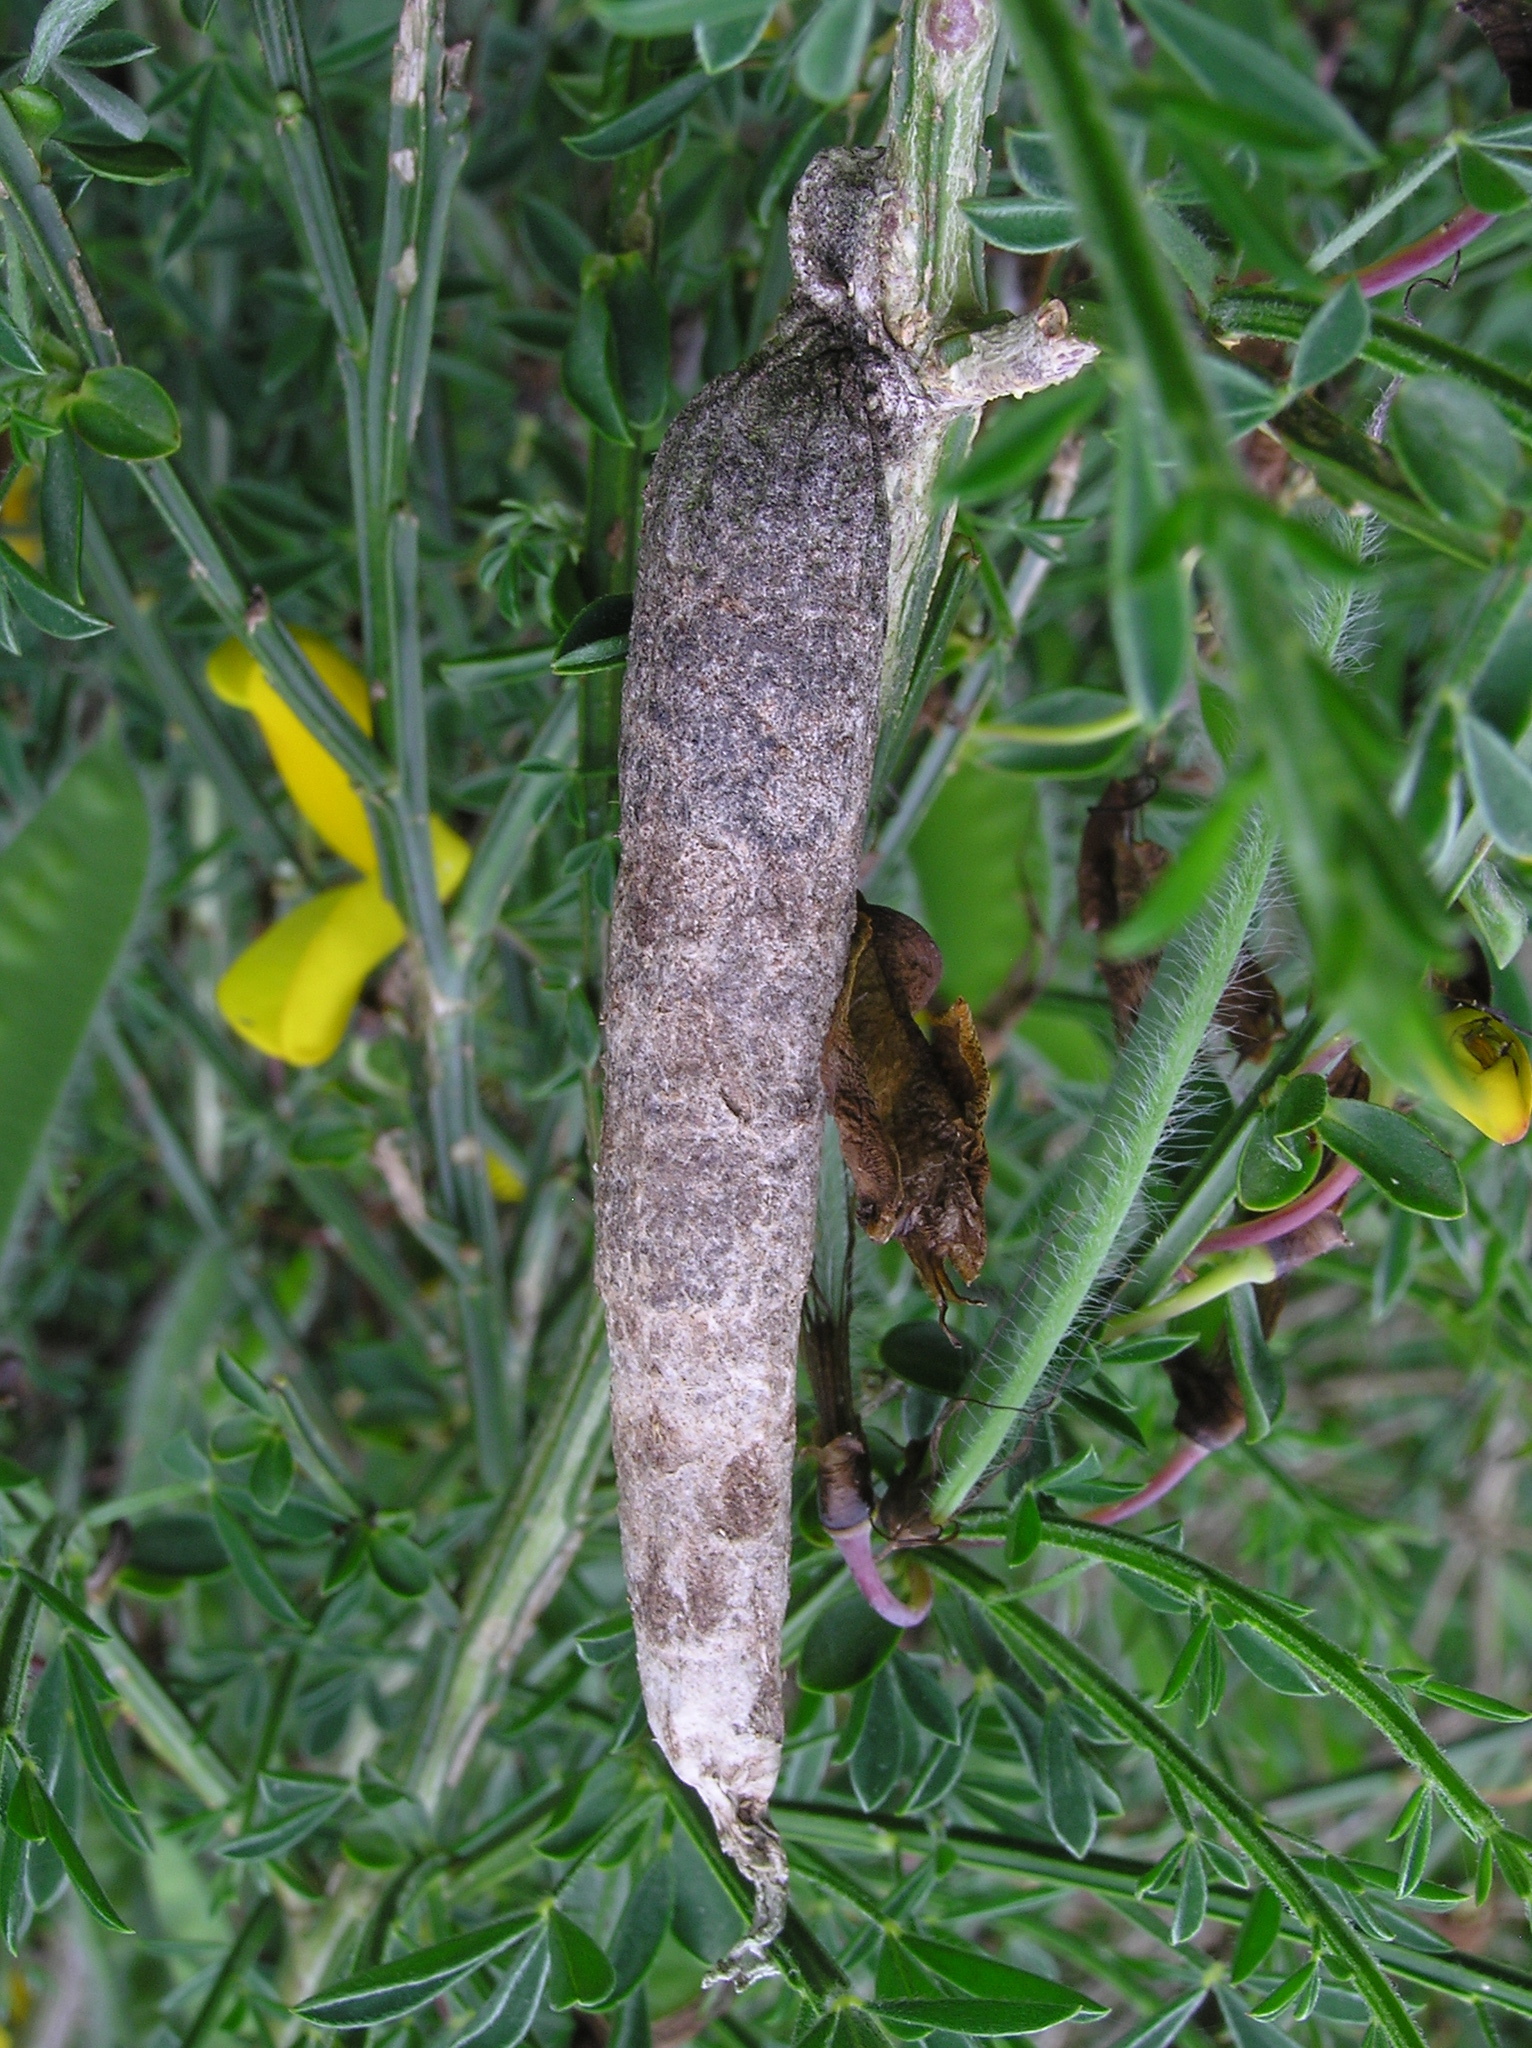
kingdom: Animalia
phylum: Arthropoda
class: Insecta
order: Lepidoptera
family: Psychidae
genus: Liothula
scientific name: Liothula omnivora
